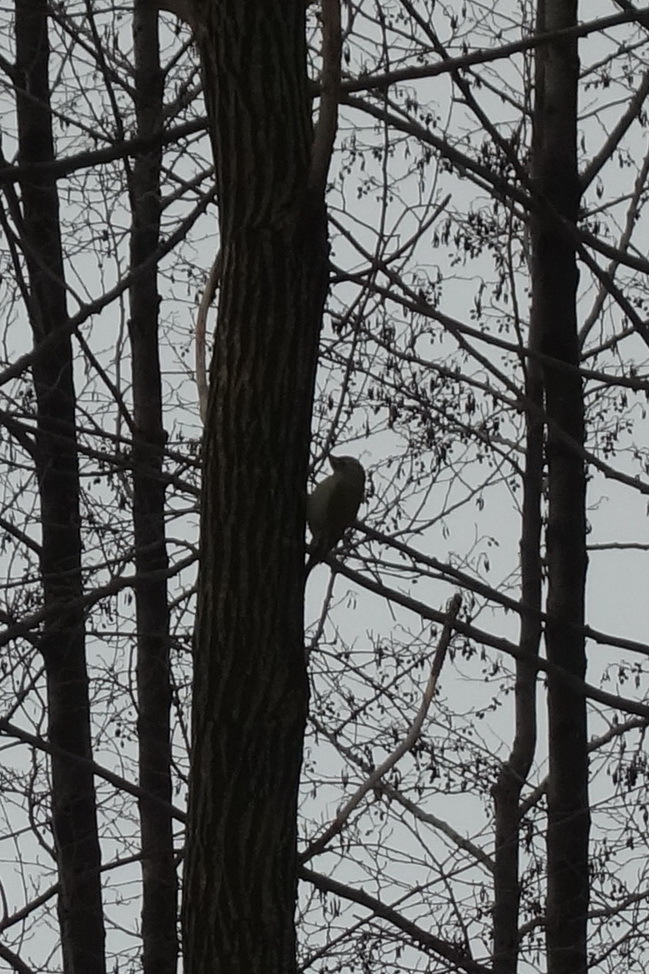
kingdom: Animalia
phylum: Chordata
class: Aves
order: Piciformes
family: Picidae
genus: Picus
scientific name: Picus canus
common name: Grey-headed woodpecker
